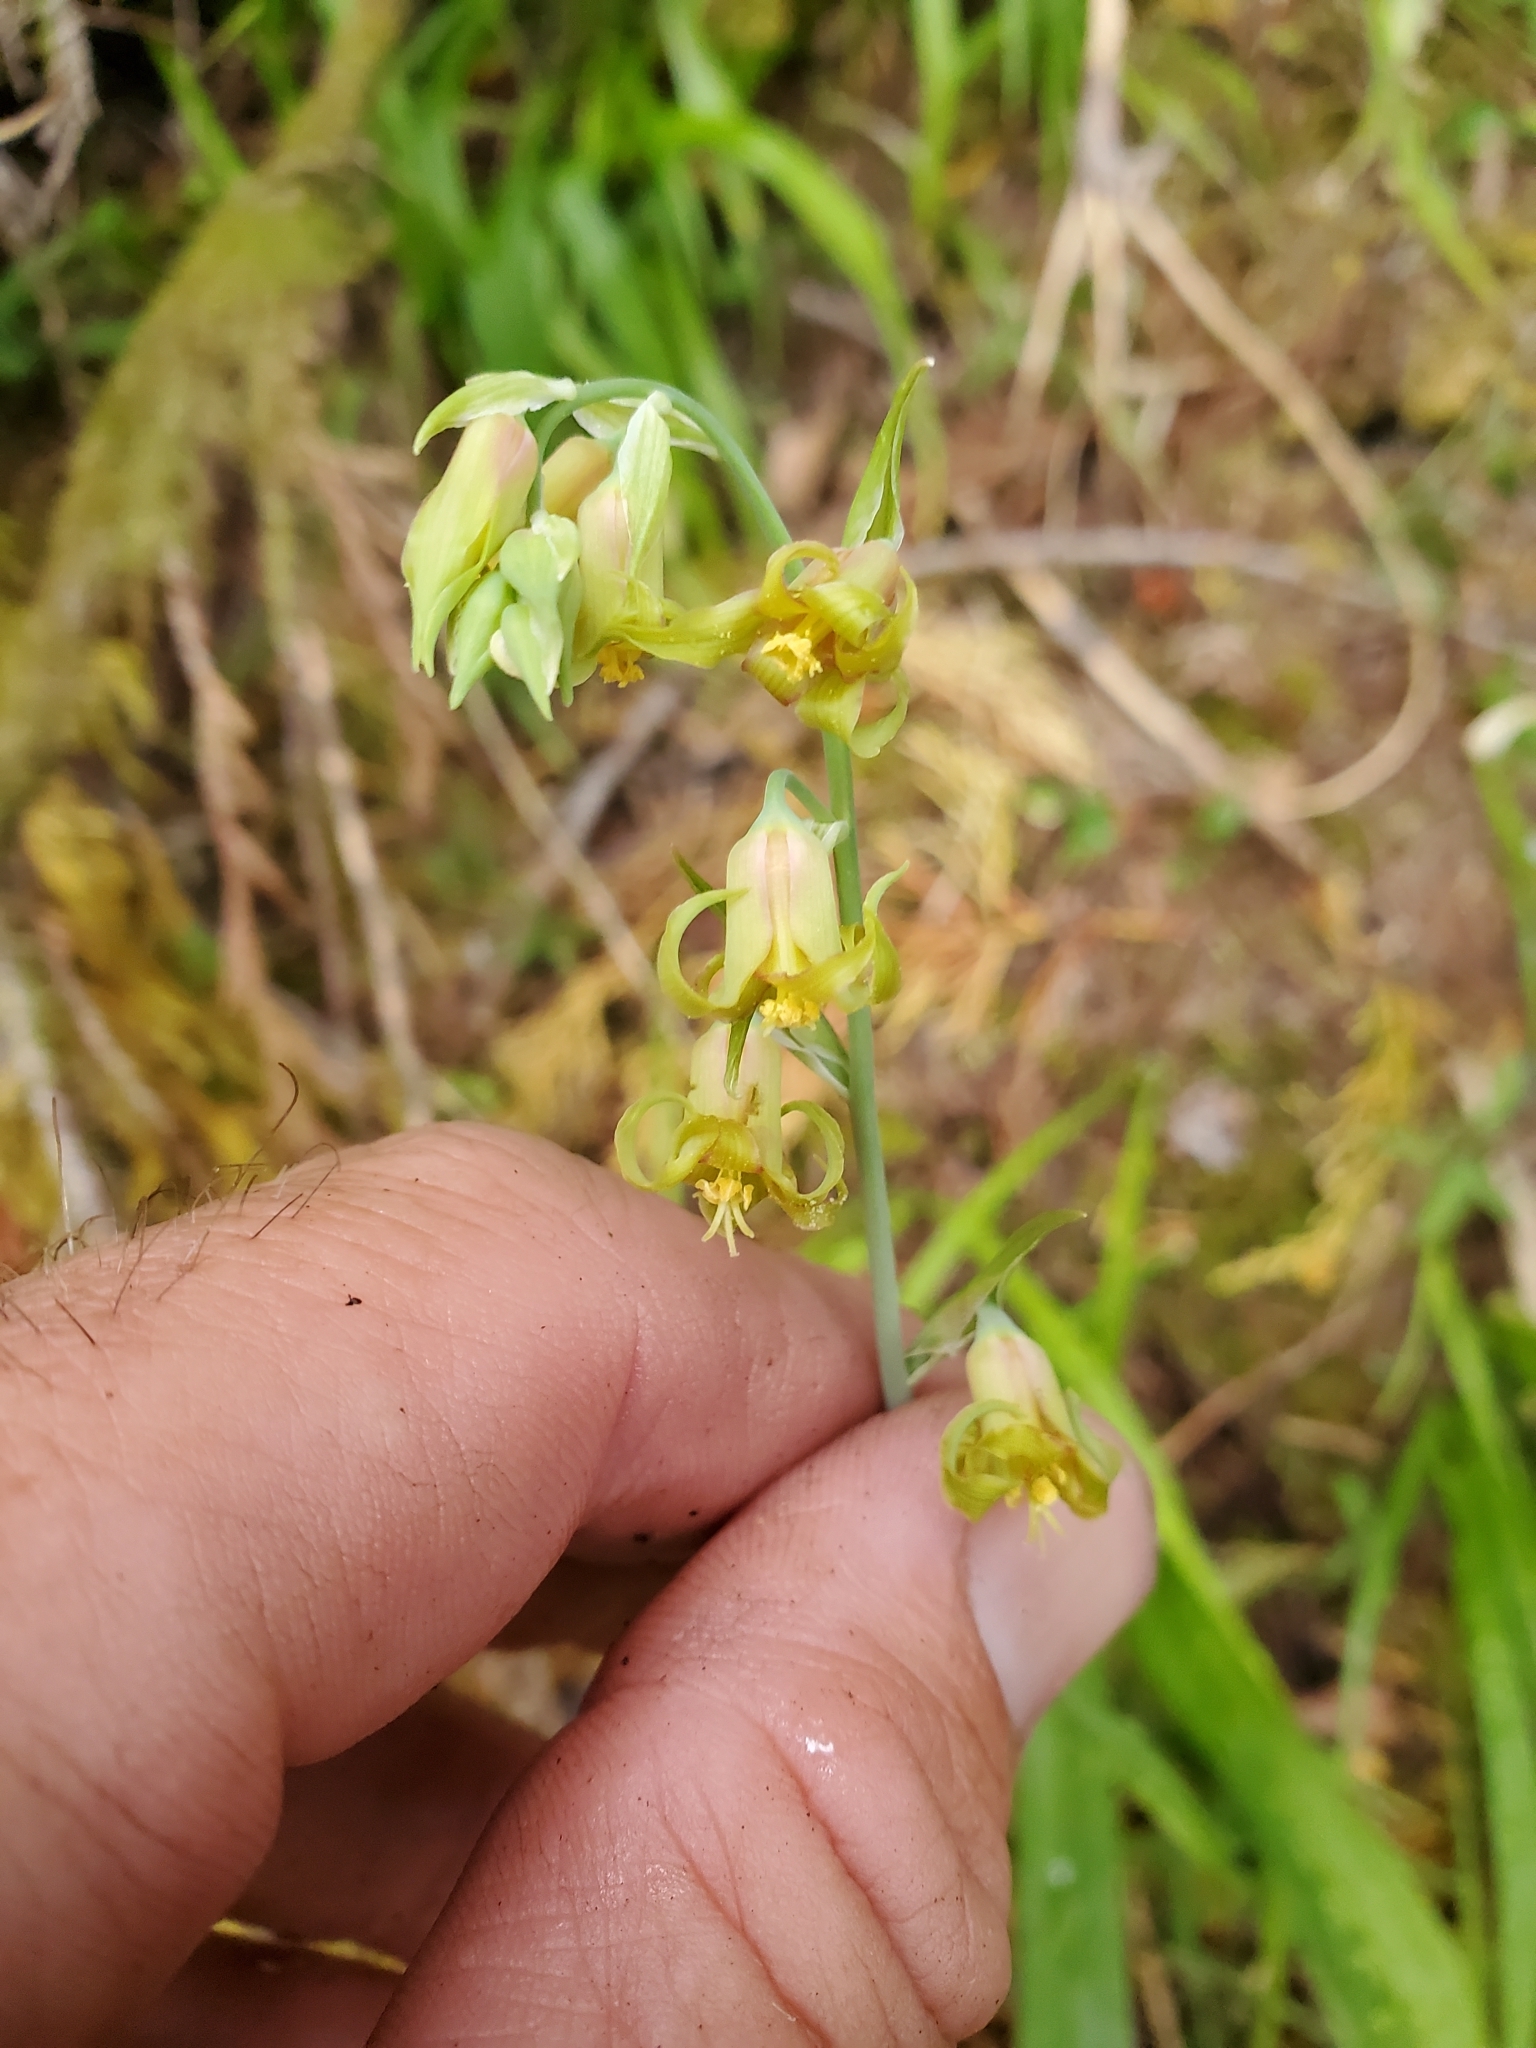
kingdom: Plantae
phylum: Tracheophyta
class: Liliopsida
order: Liliales
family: Melanthiaceae
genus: Anticlea
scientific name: Anticlea occidentalis
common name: Bronze-bells
